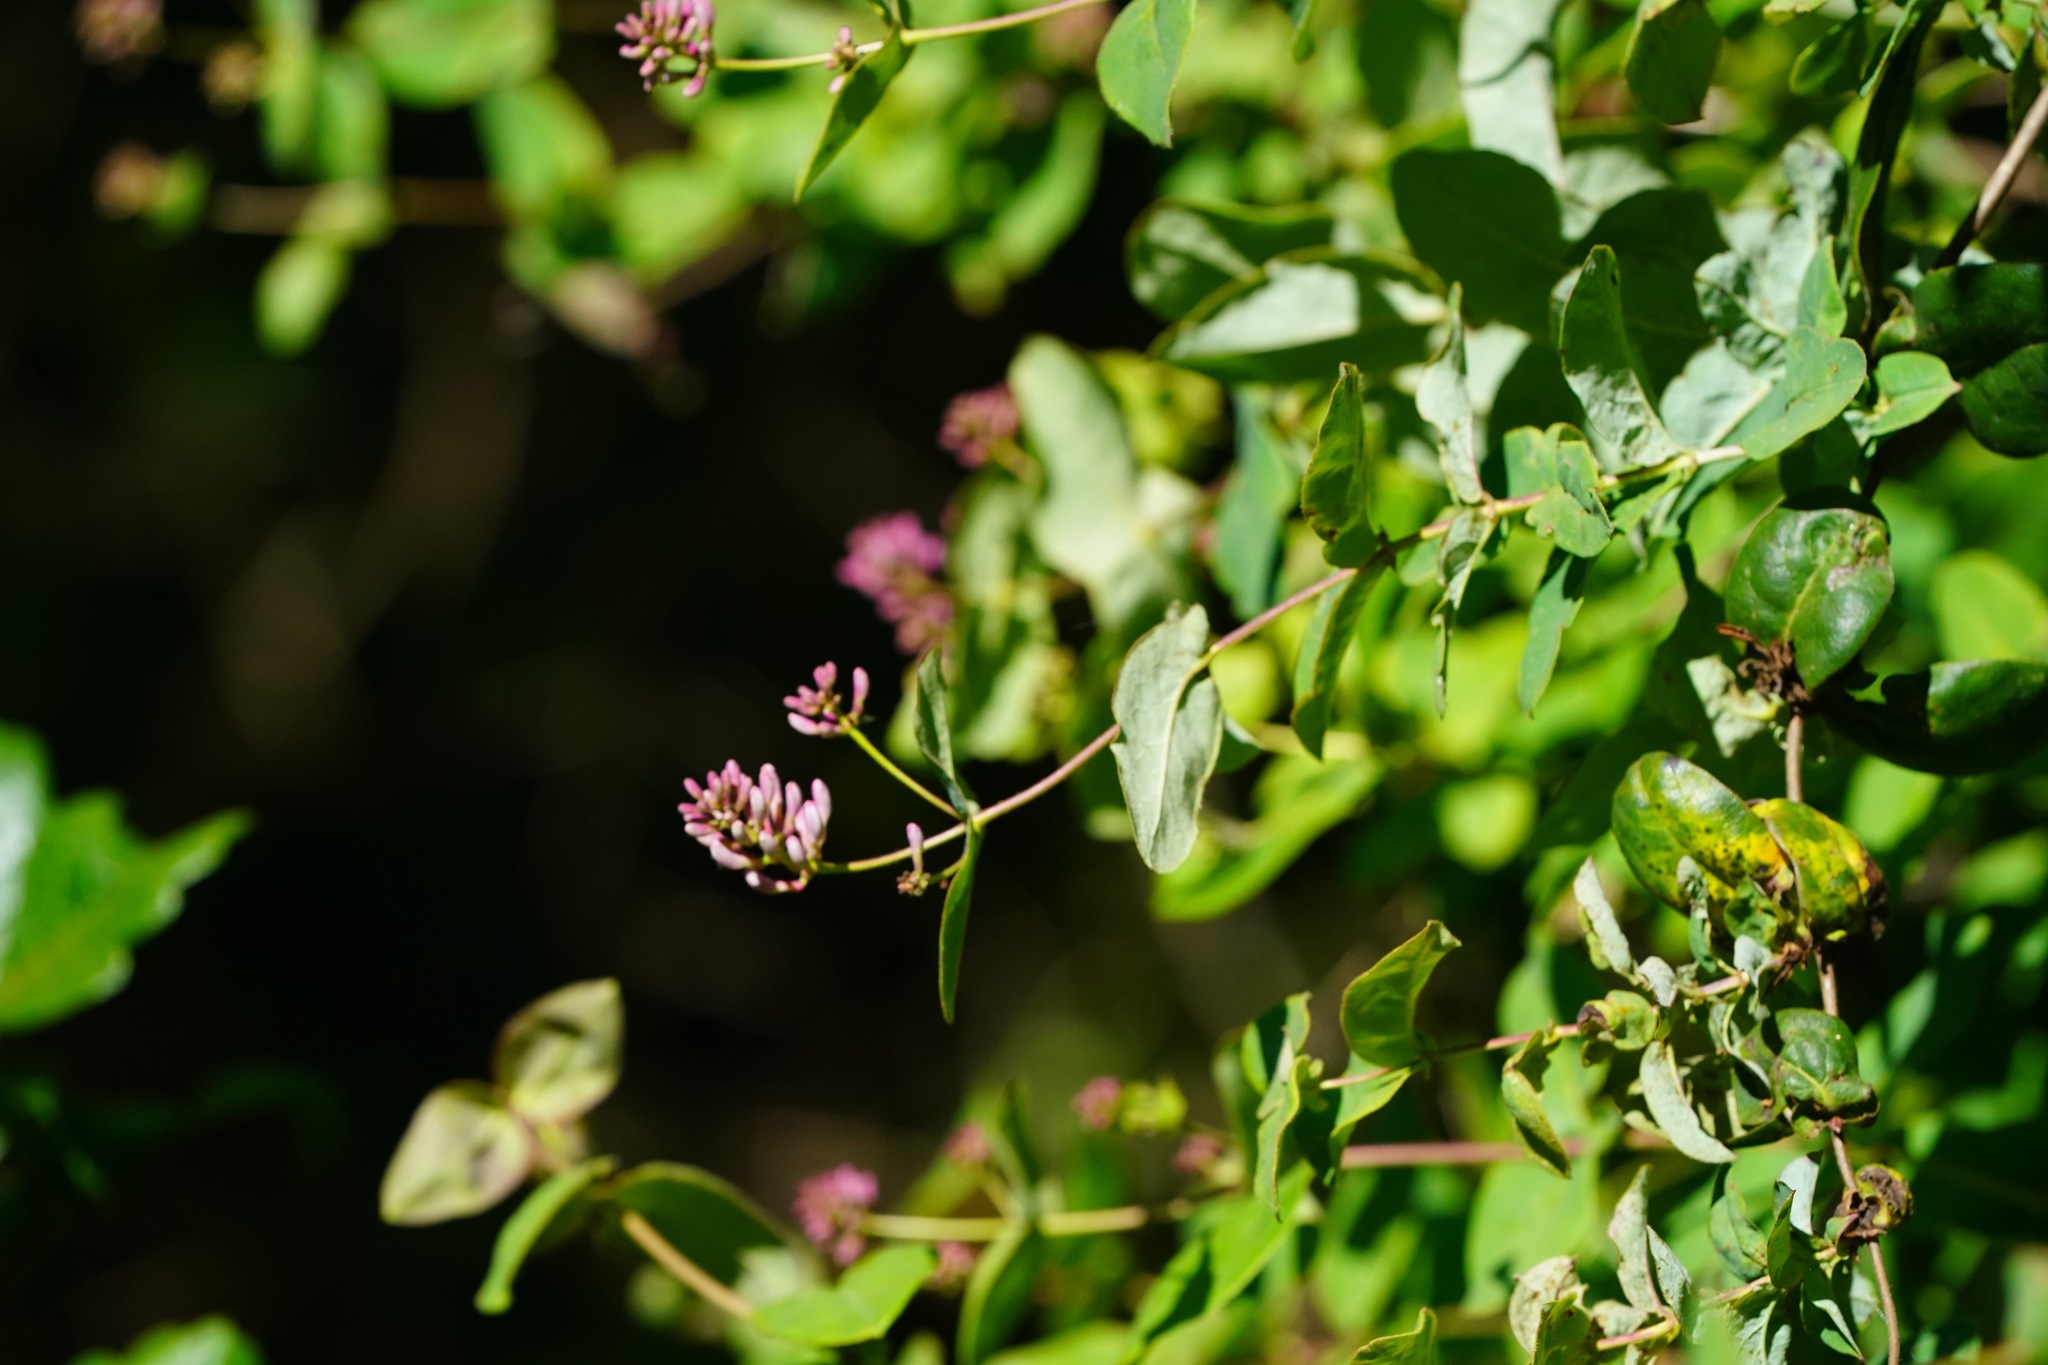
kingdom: Plantae
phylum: Tracheophyta
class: Magnoliopsida
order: Dipsacales
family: Caprifoliaceae
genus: Lonicera
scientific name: Lonicera hispidula
